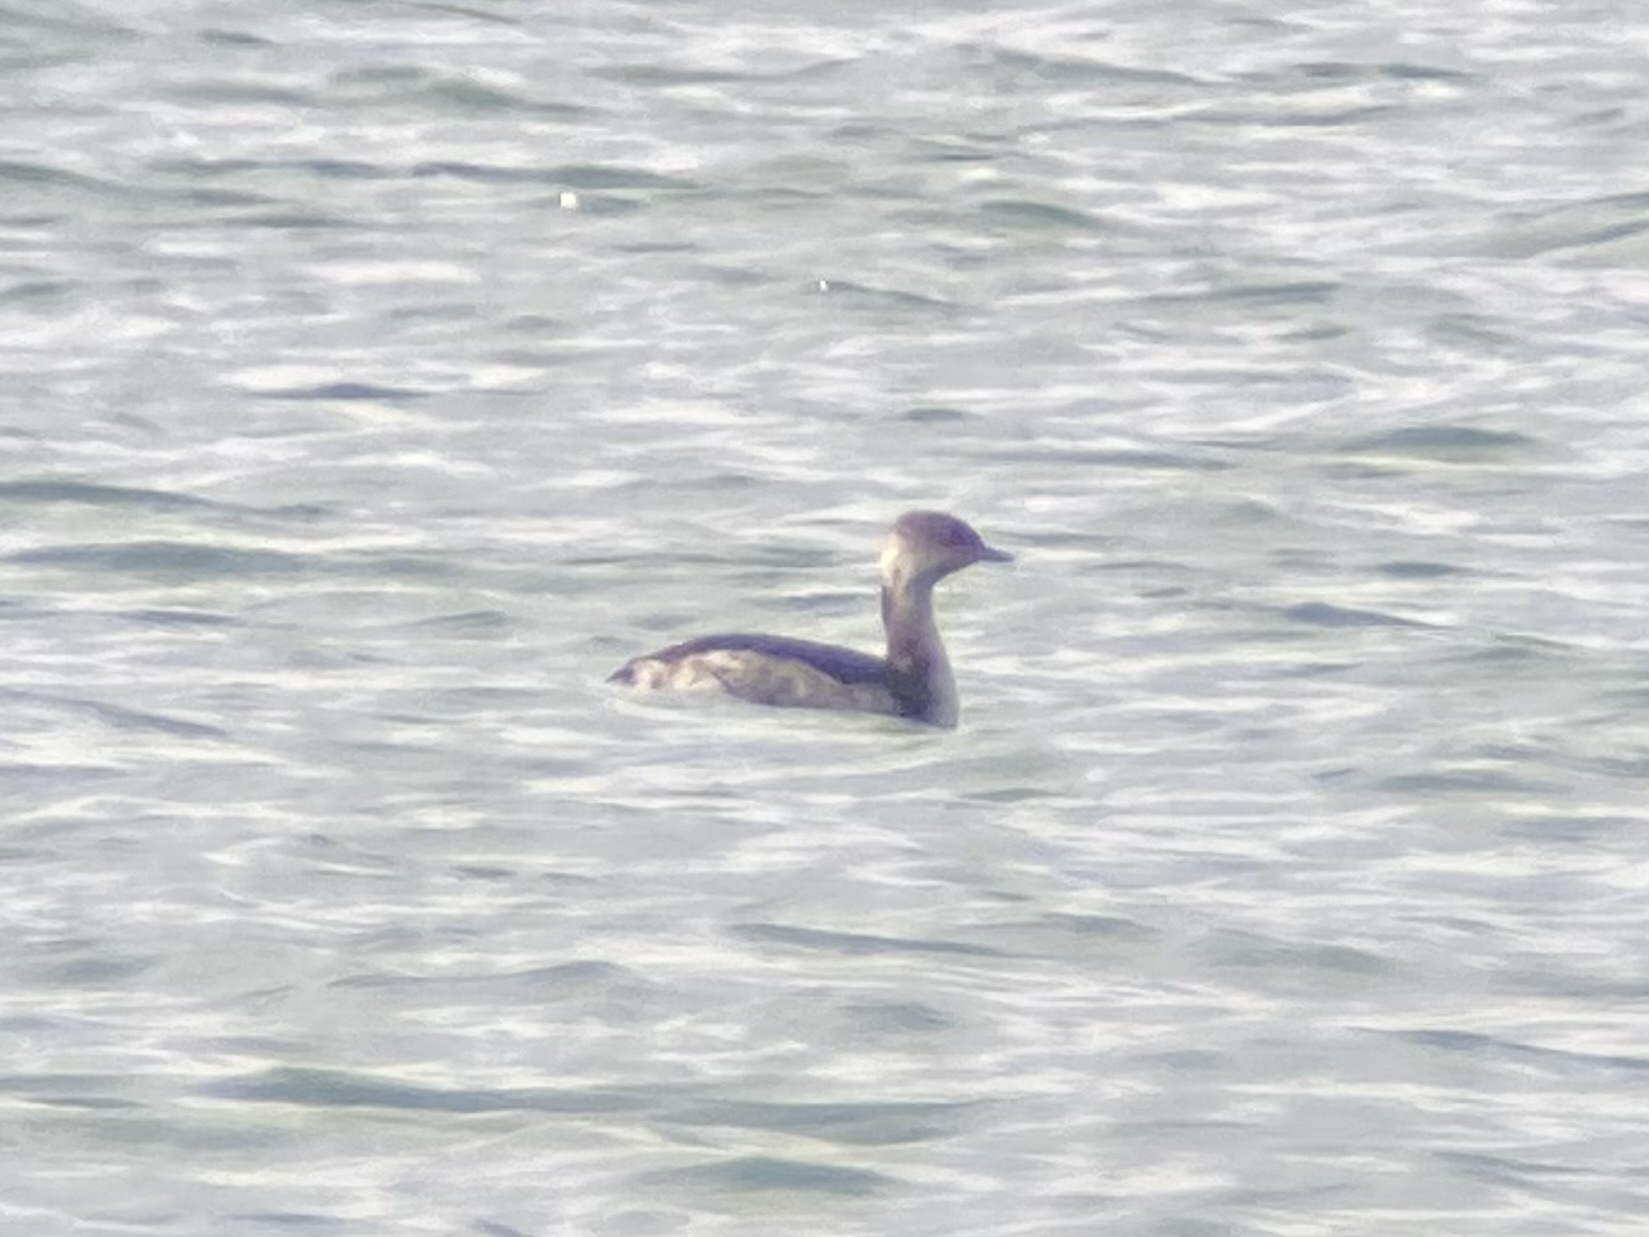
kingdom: Animalia
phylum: Chordata
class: Aves
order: Podicipediformes
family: Podicipedidae
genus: Podiceps
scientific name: Podiceps auritus
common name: Horned grebe
